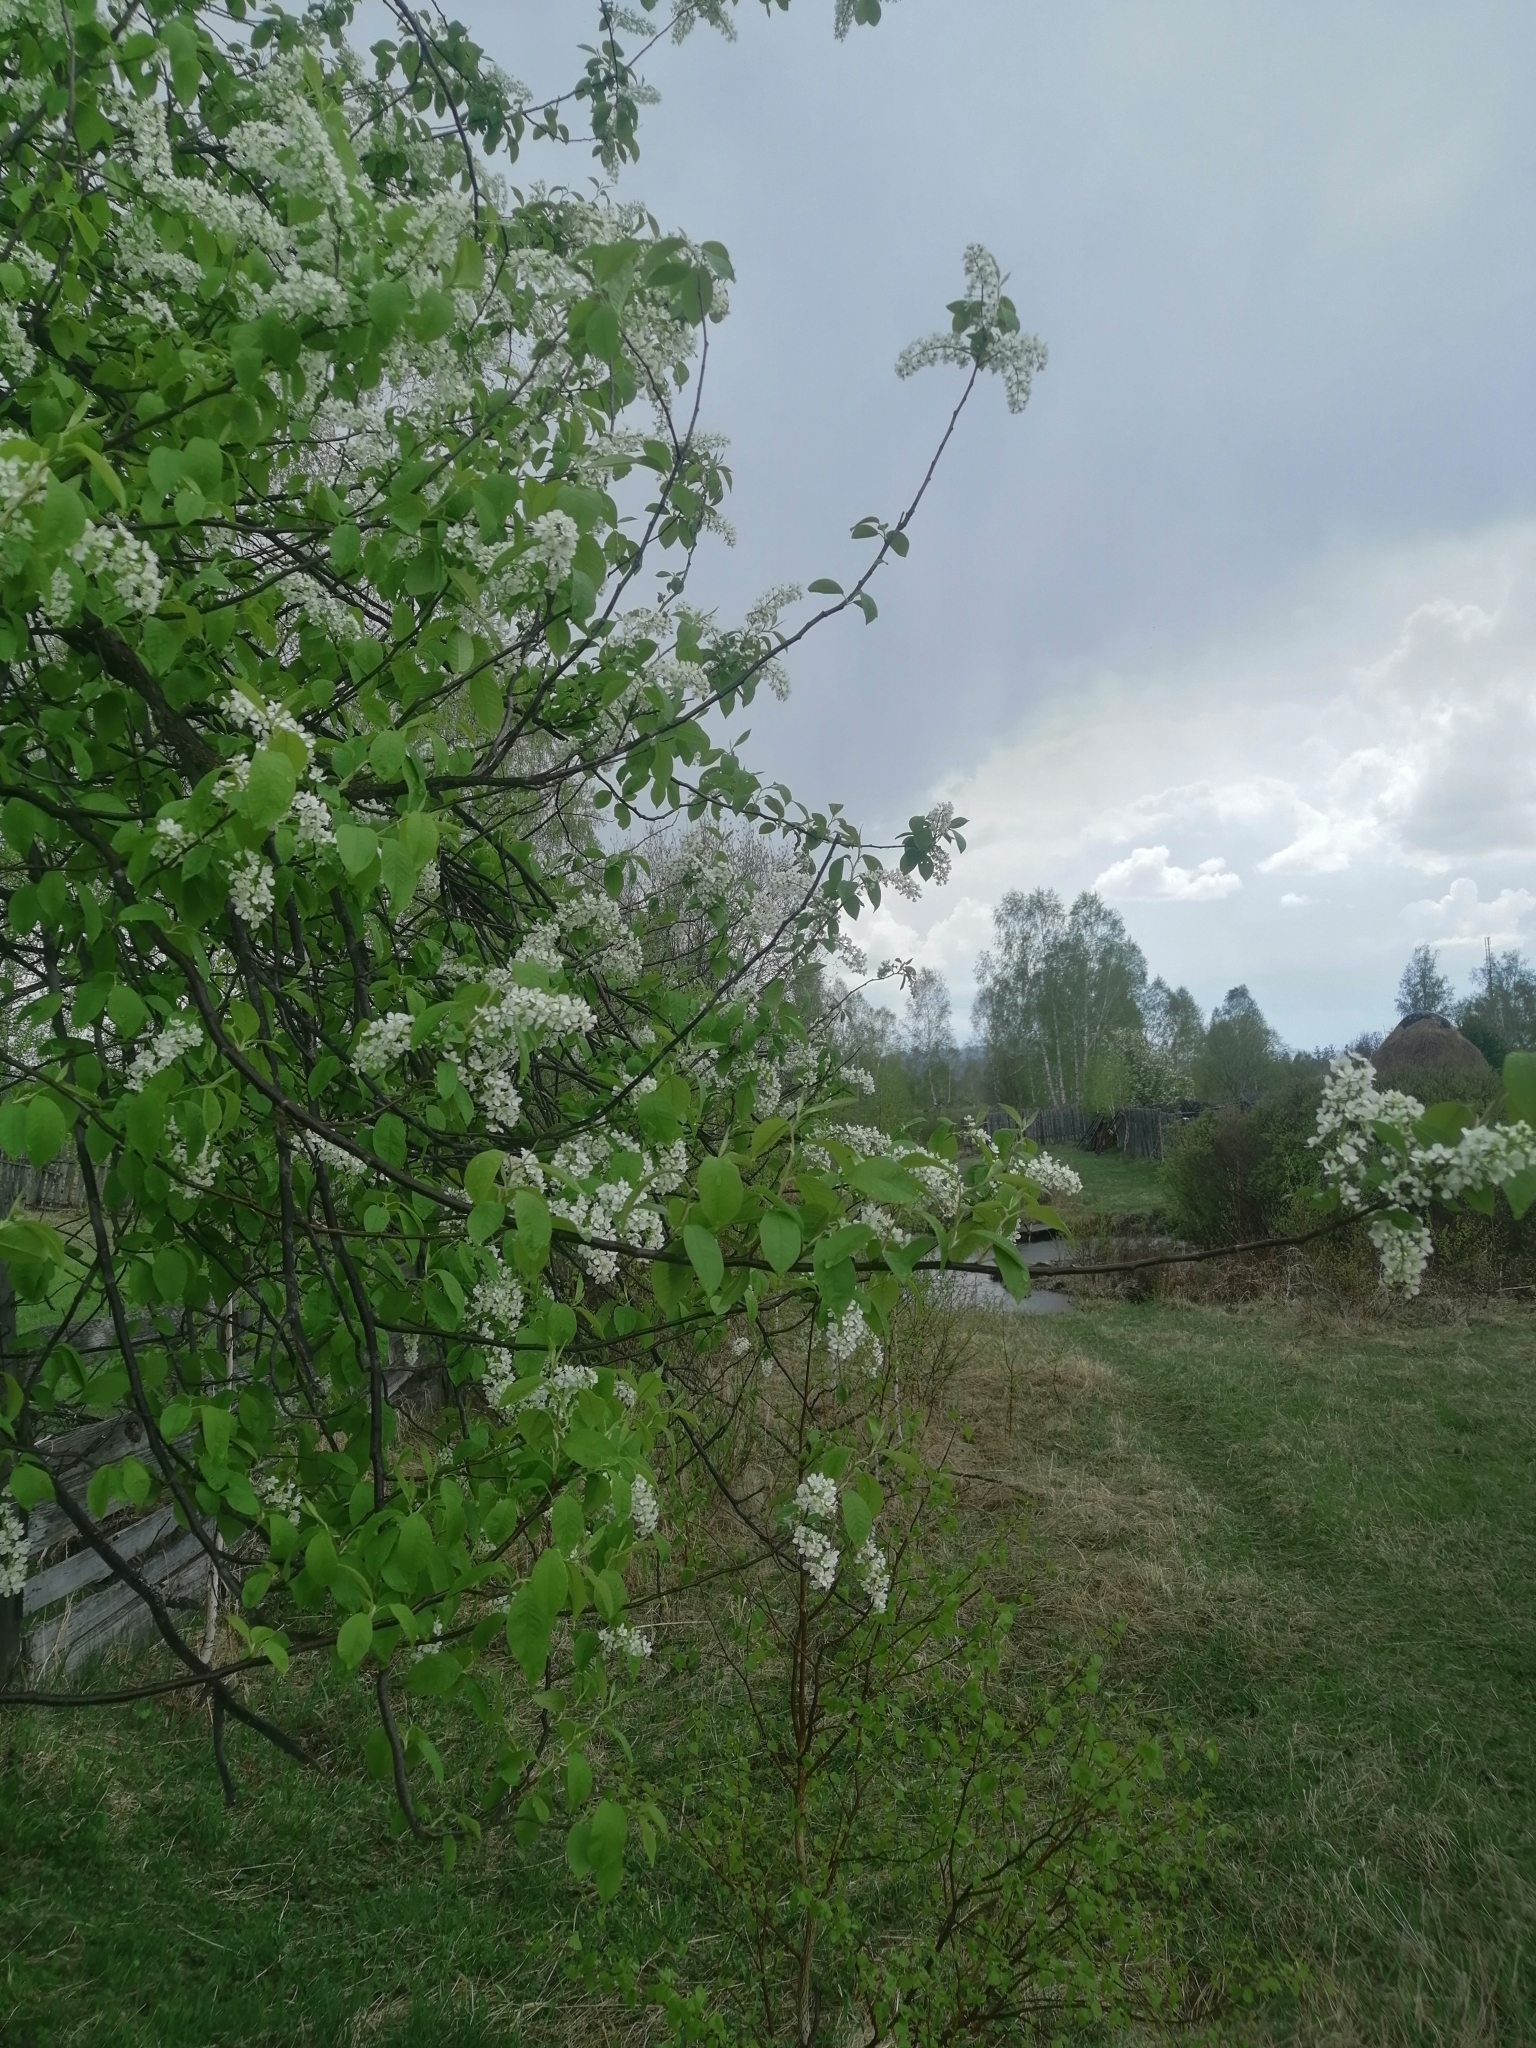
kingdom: Plantae
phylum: Tracheophyta
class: Magnoliopsida
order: Rosales
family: Rosaceae
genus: Prunus
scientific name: Prunus padus
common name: Bird cherry
